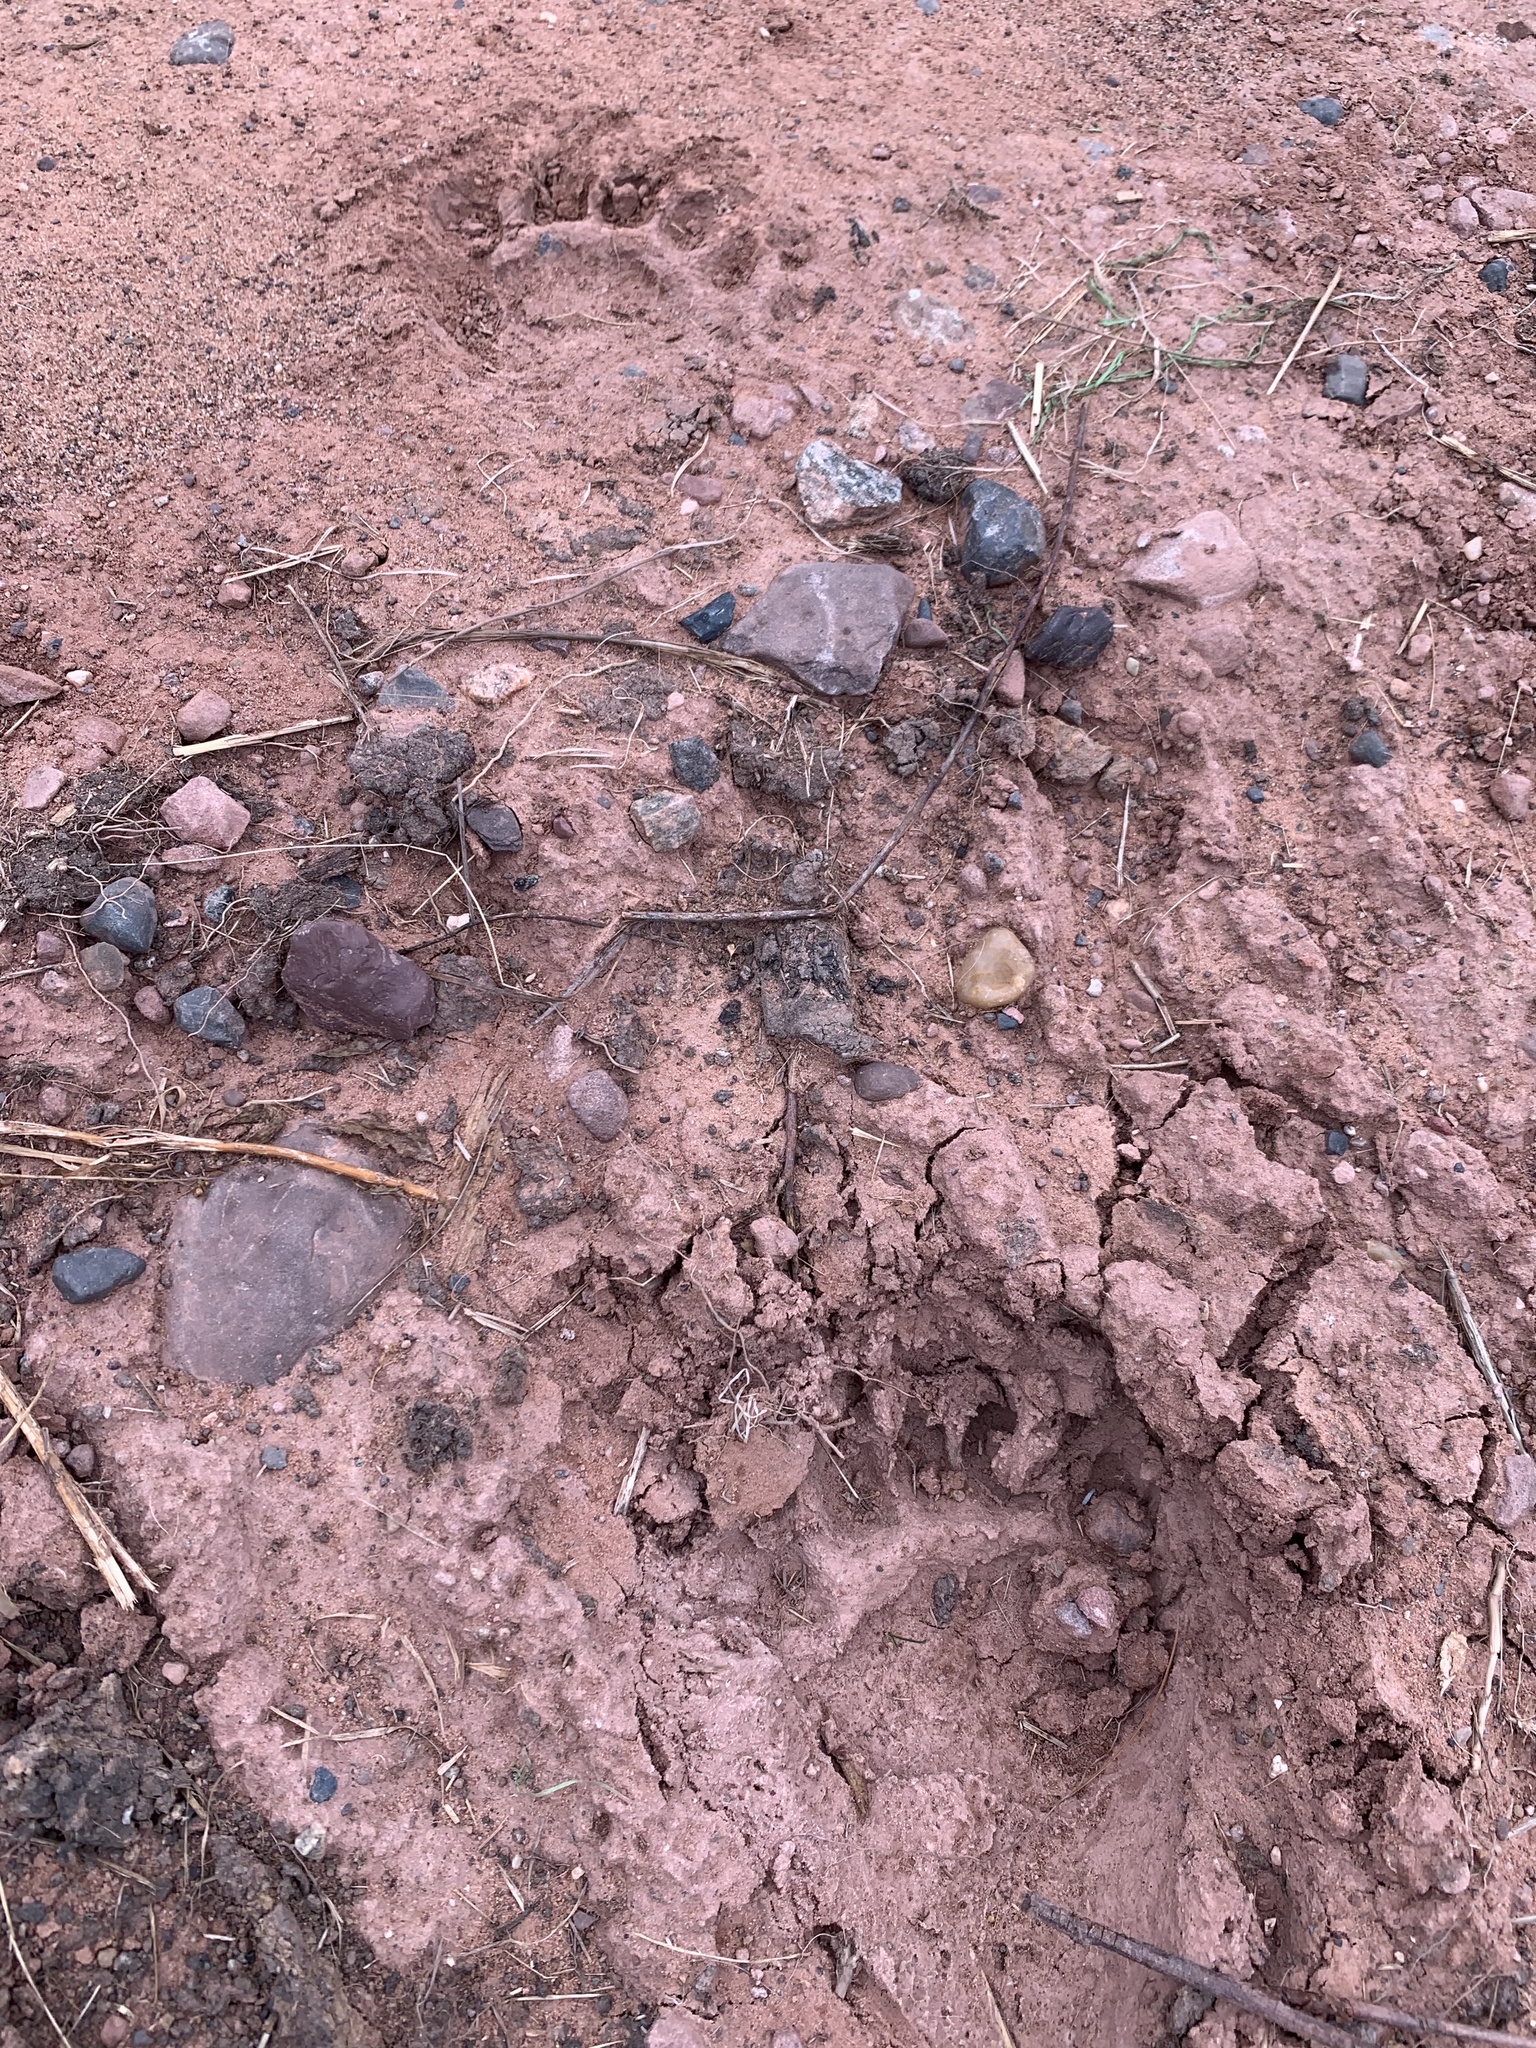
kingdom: Animalia
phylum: Chordata
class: Mammalia
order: Carnivora
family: Ursidae
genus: Ursus
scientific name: Ursus americanus
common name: American black bear
